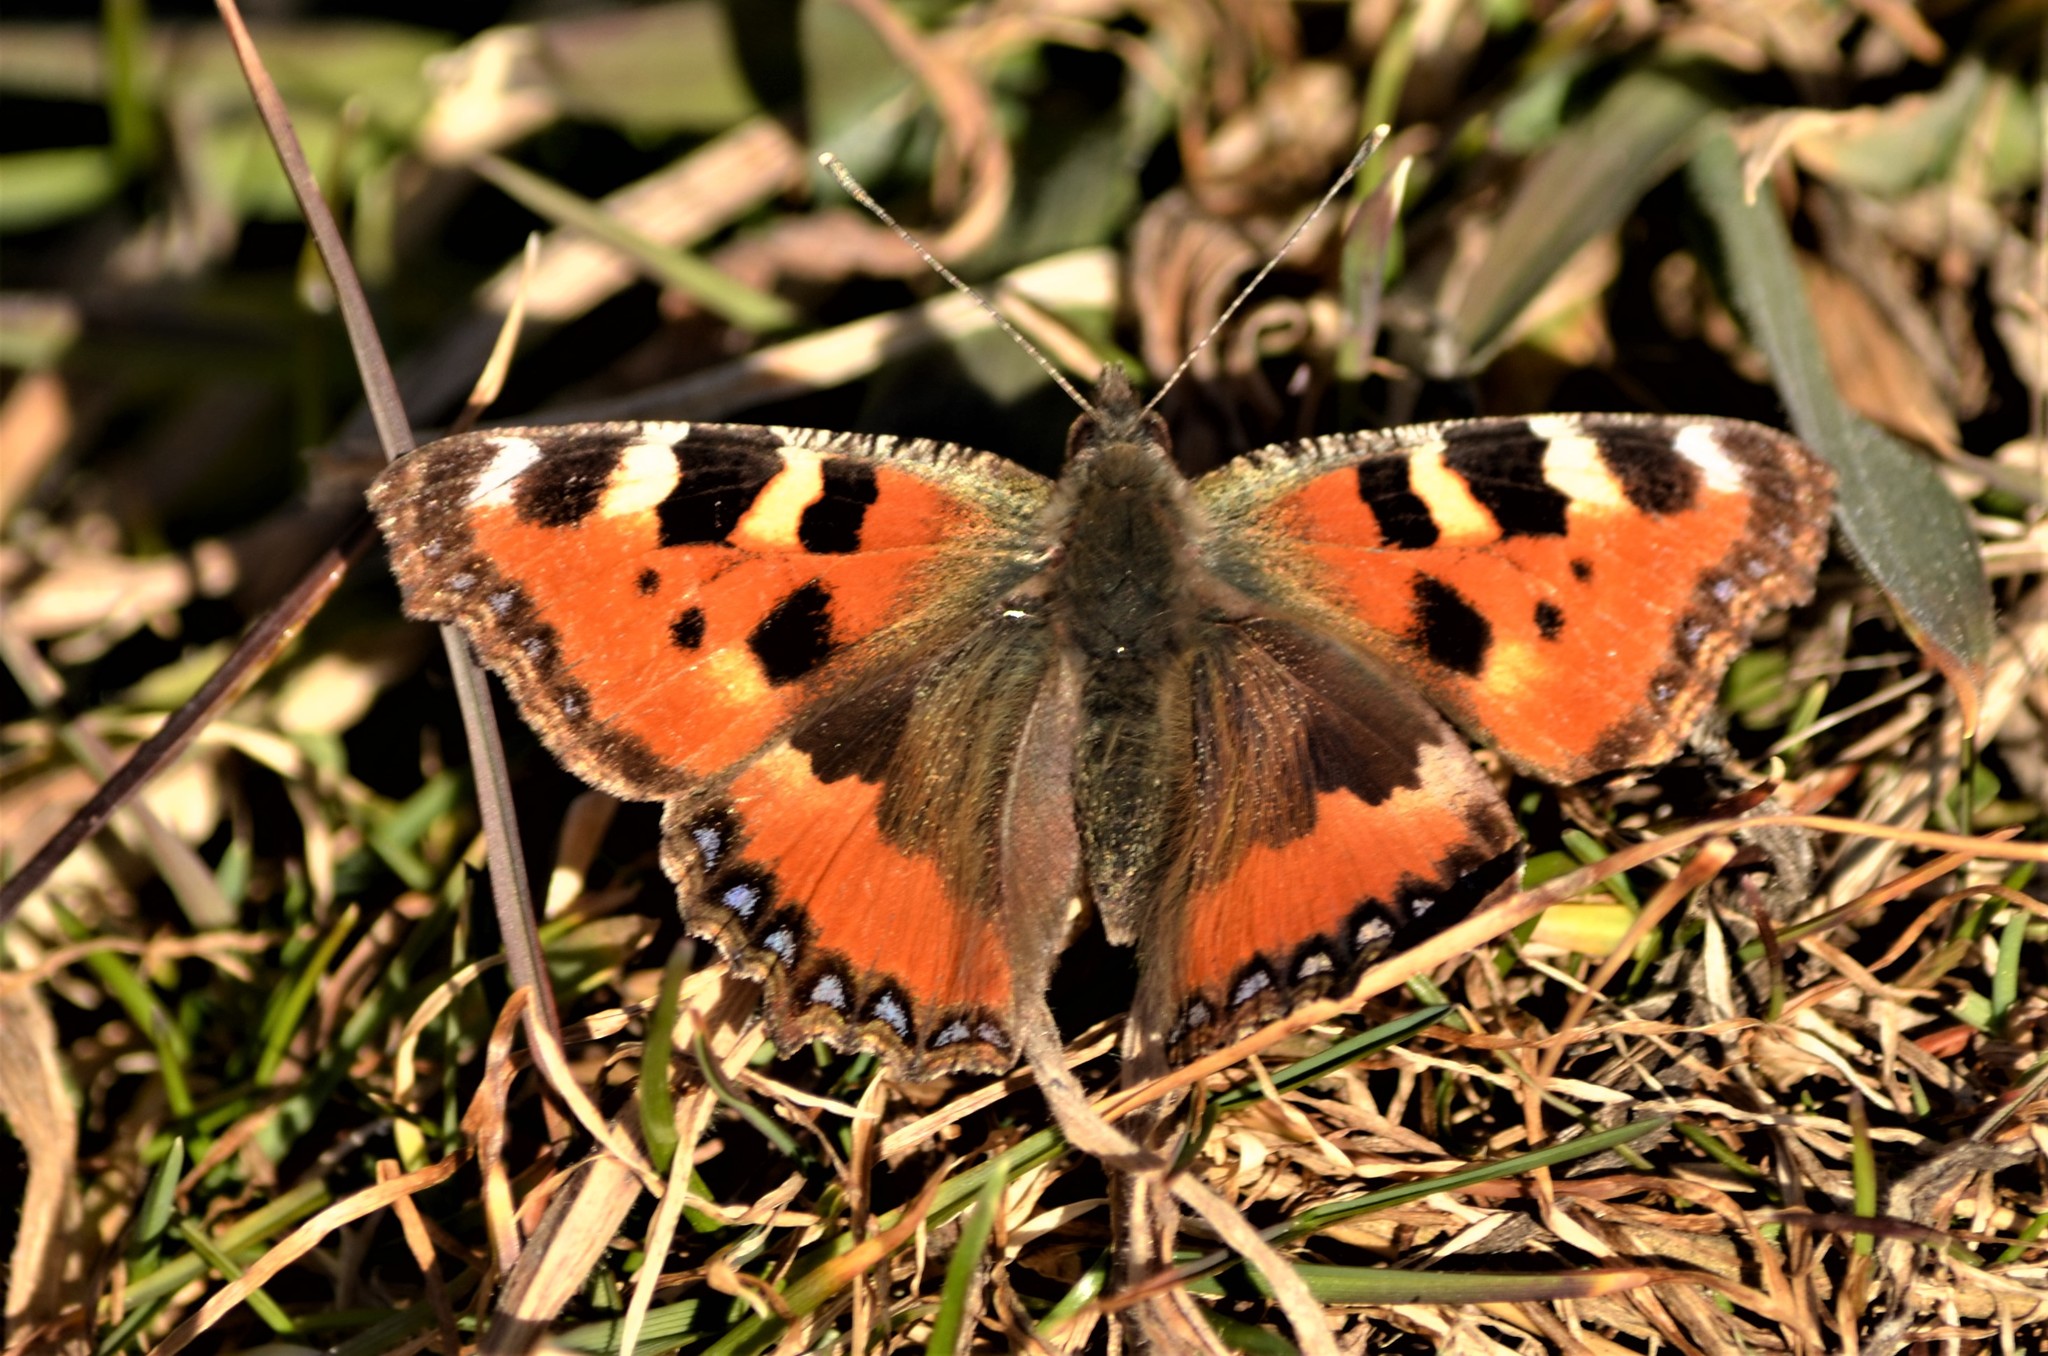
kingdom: Animalia
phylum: Arthropoda
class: Insecta
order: Lepidoptera
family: Nymphalidae
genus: Aglais
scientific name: Aglais urticae
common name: Small tortoiseshell
